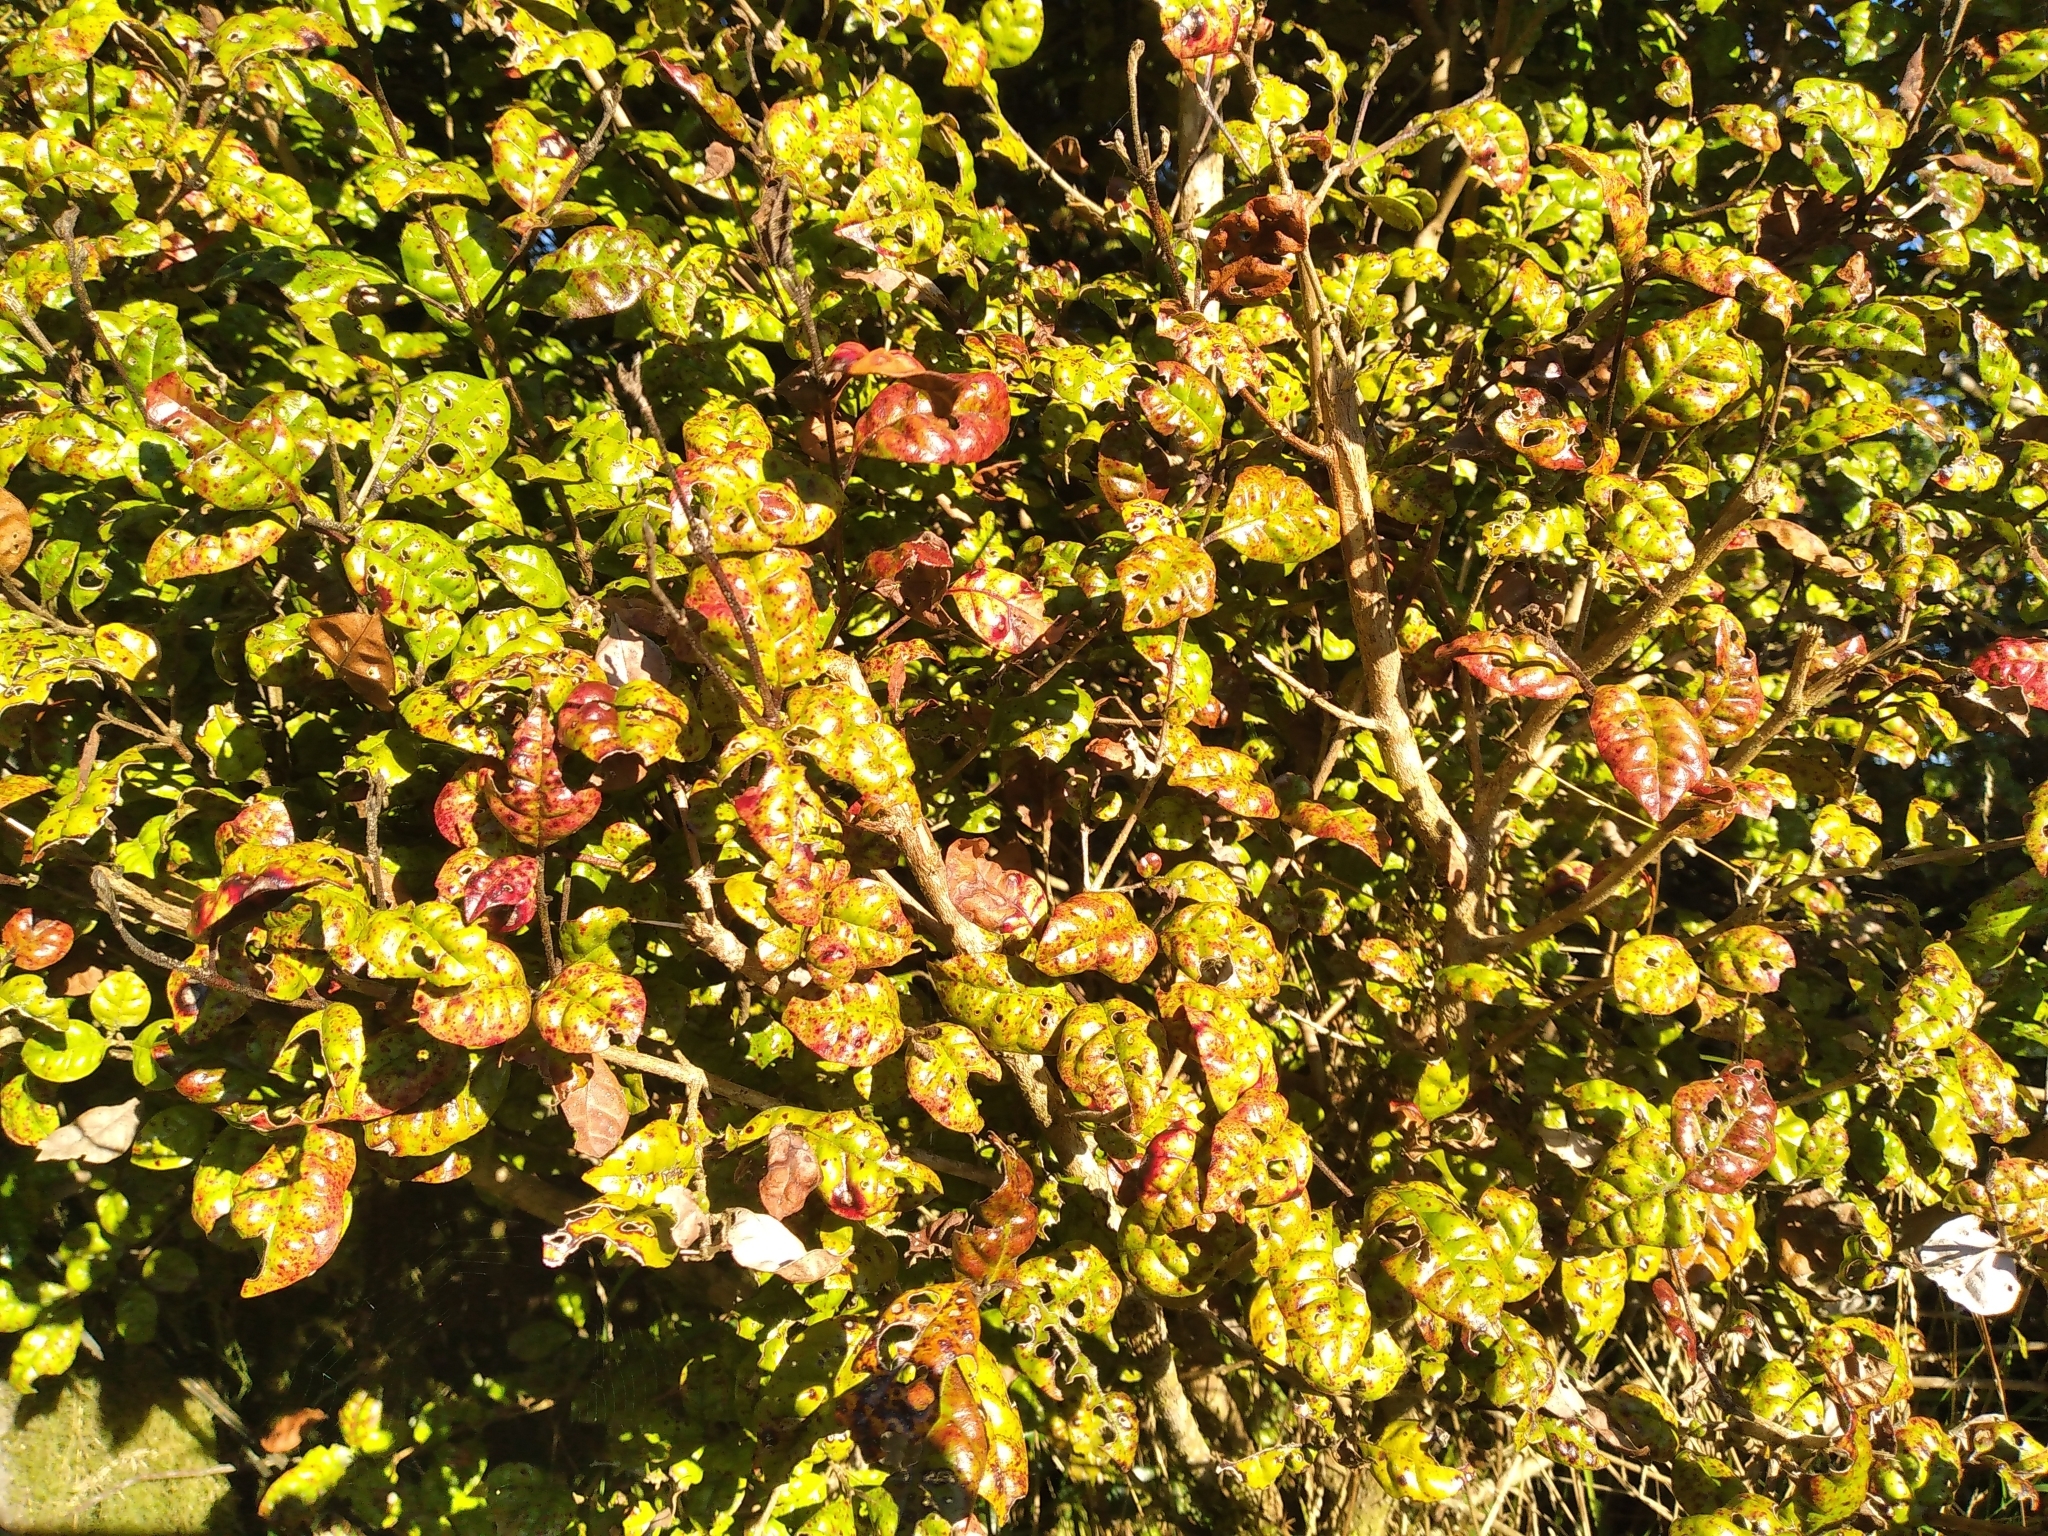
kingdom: Plantae
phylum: Tracheophyta
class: Magnoliopsida
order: Myrtales
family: Myrtaceae
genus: Lophomyrtus
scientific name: Lophomyrtus bullata
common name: Rama rama
